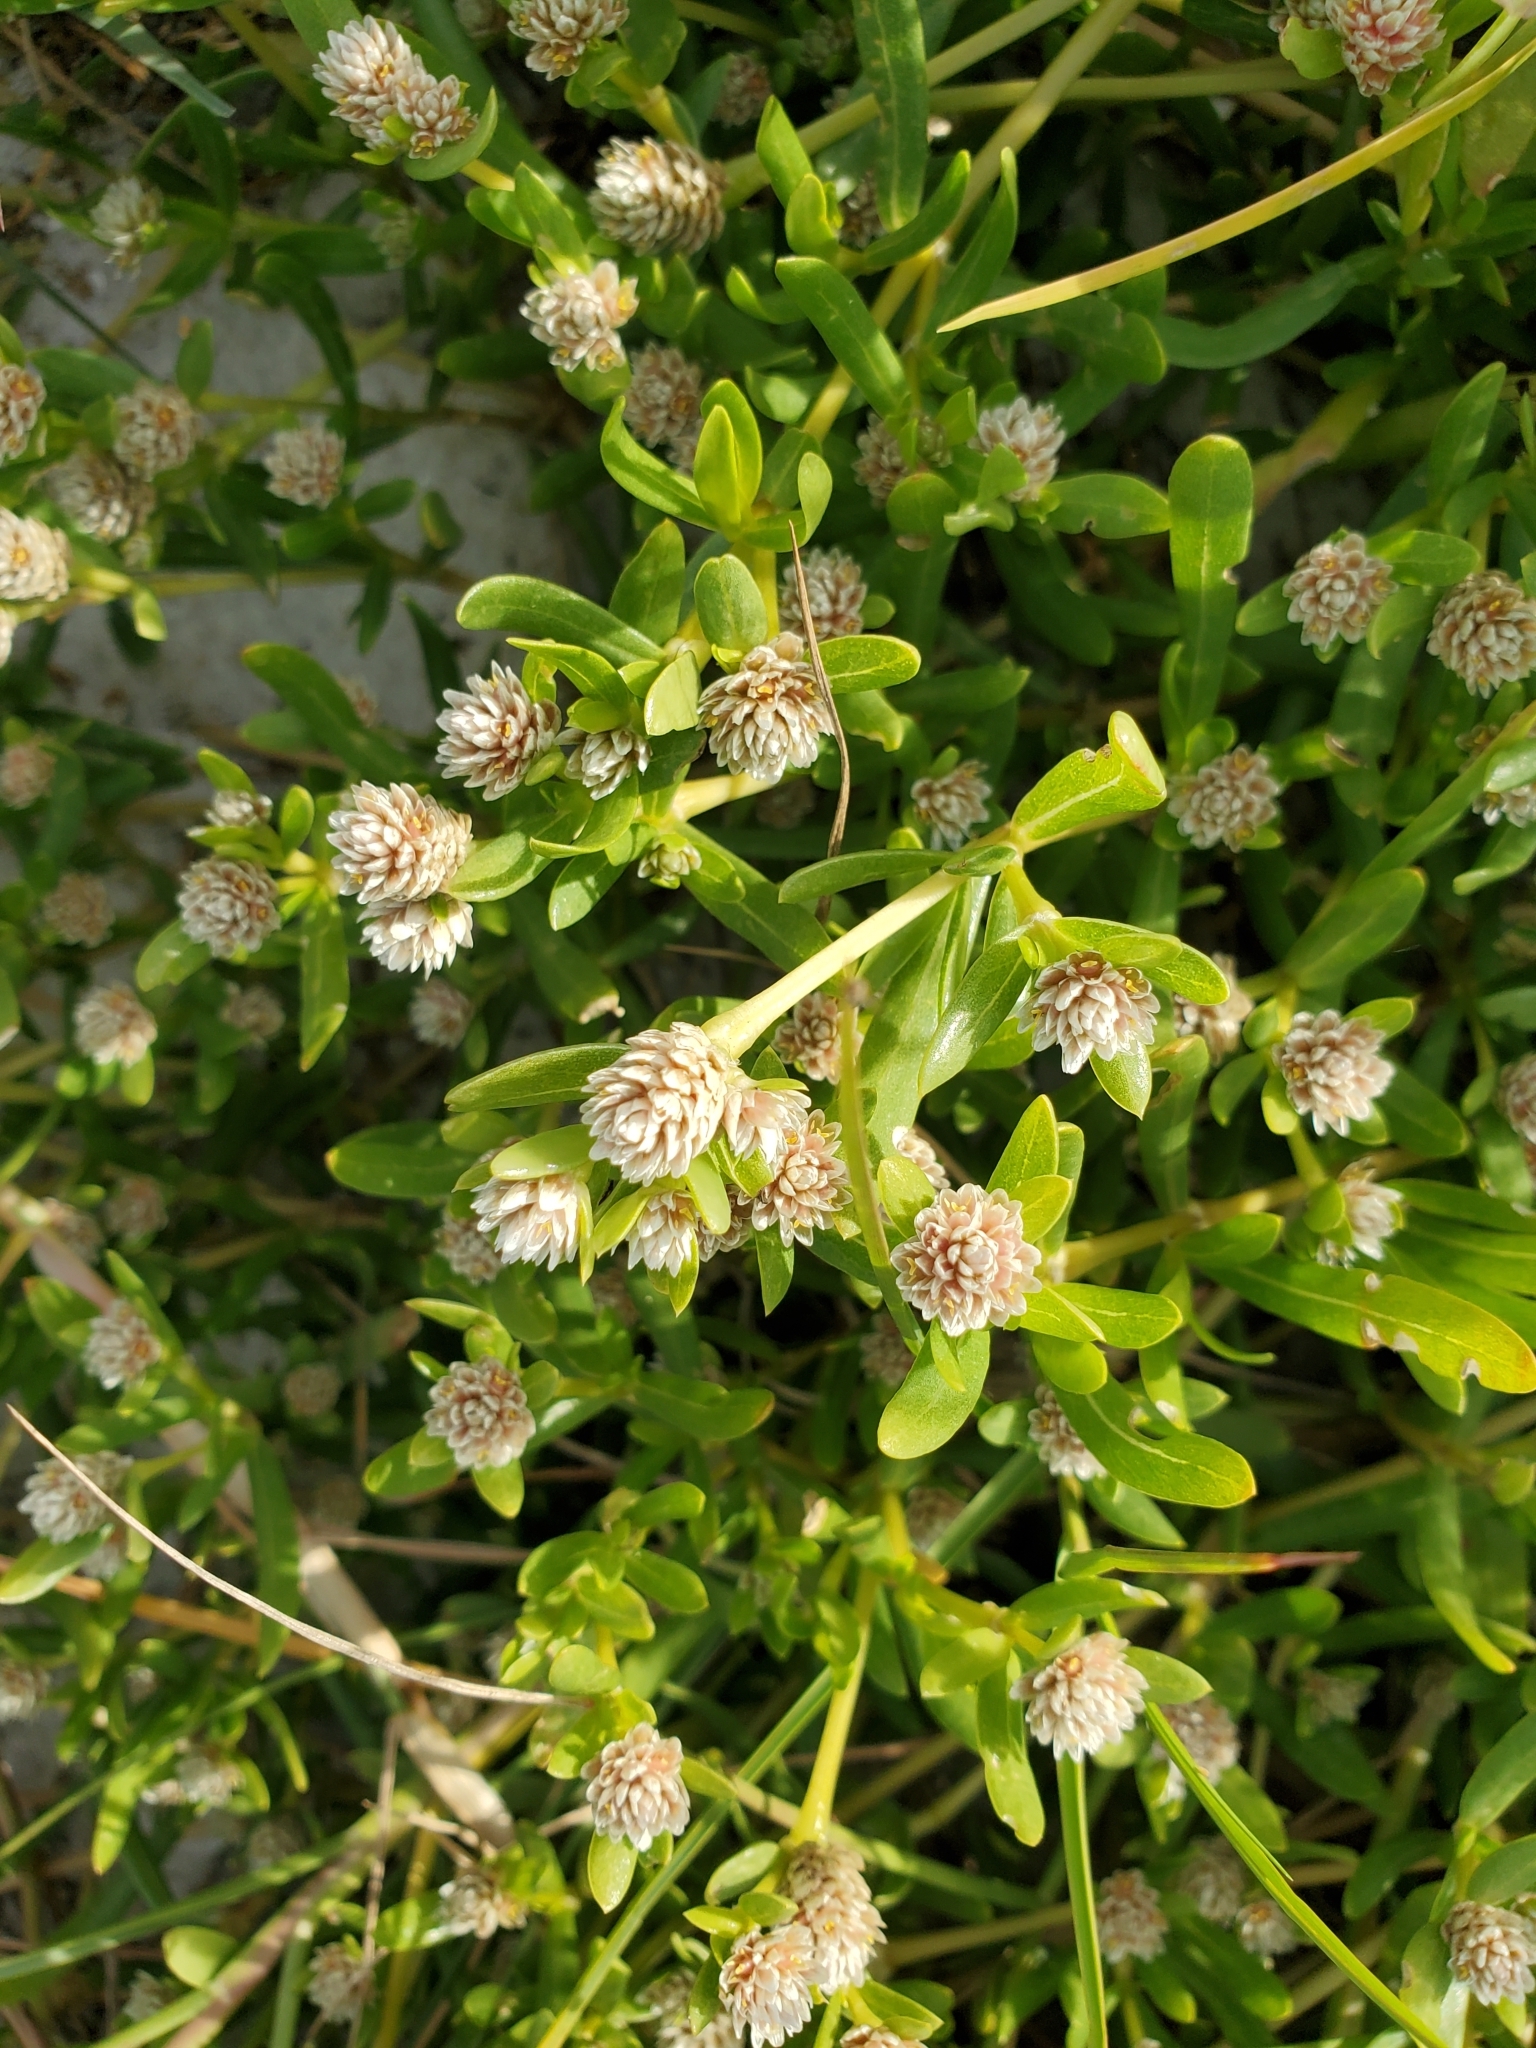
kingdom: Plantae
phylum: Tracheophyta
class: Magnoliopsida
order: Caryophyllales
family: Amaranthaceae
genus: Gomphrena
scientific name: Gomphrena vermicularis
